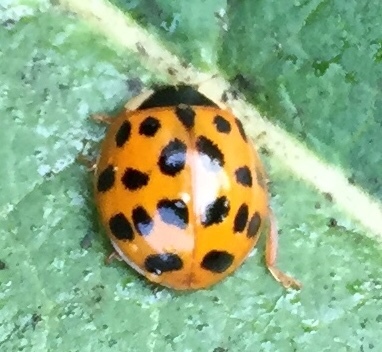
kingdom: Animalia
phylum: Arthropoda
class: Insecta
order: Coleoptera
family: Coccinellidae
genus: Harmonia
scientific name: Harmonia axyridis
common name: Harlequin ladybird
